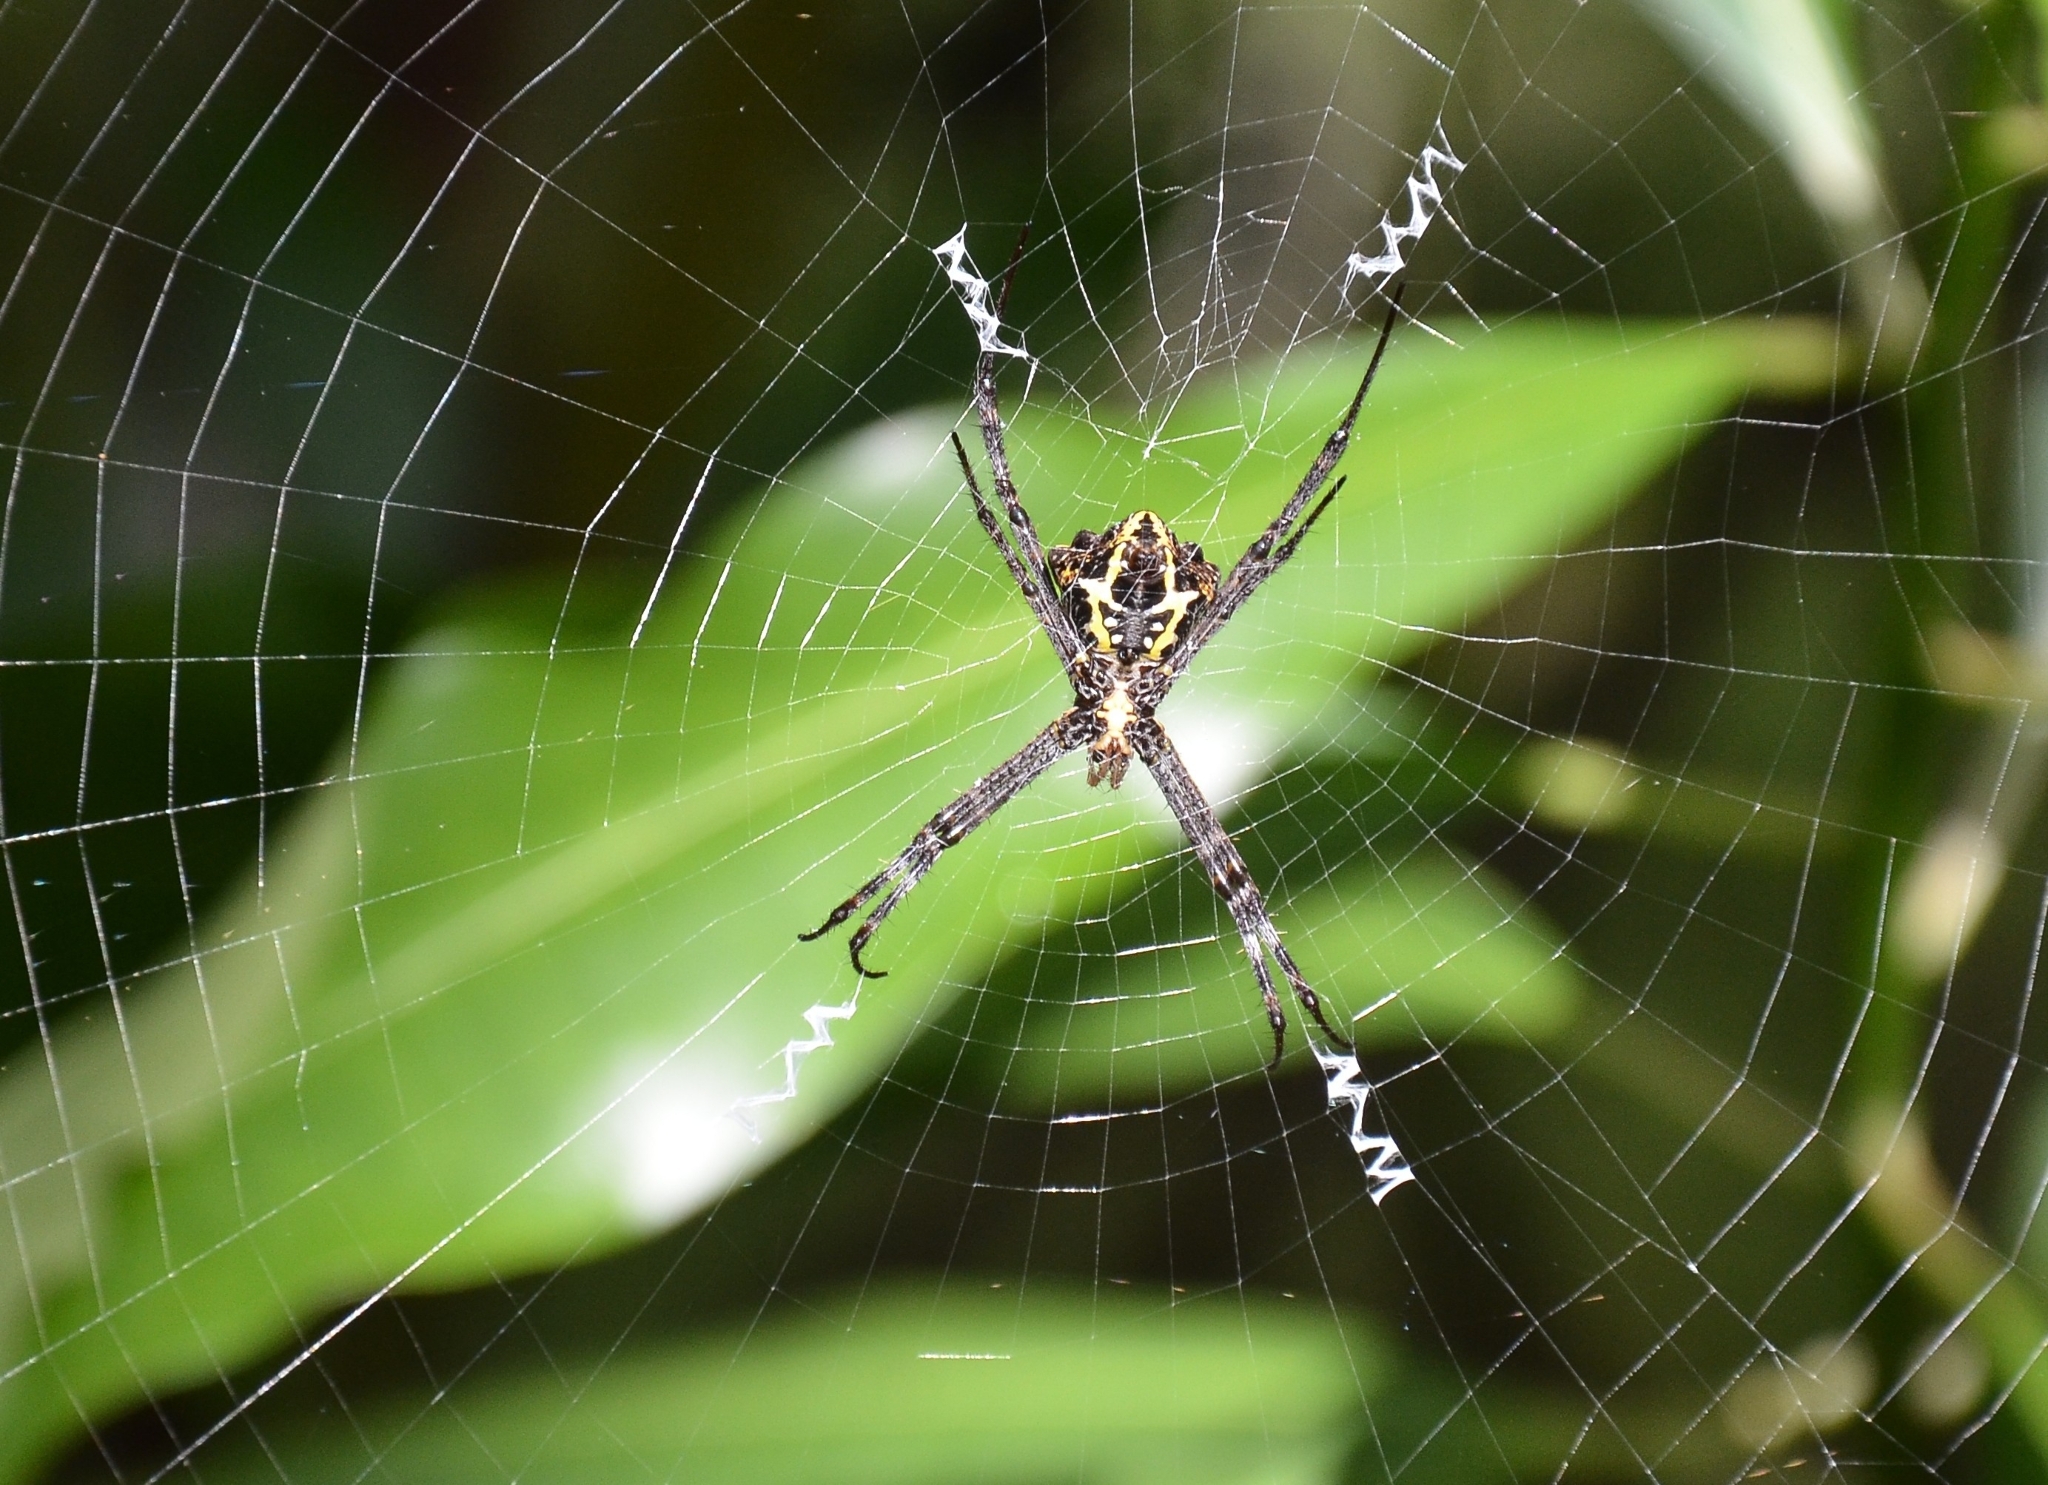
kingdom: Animalia
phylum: Arthropoda
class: Arachnida
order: Araneae
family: Araneidae
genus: Argiope
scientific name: Argiope
